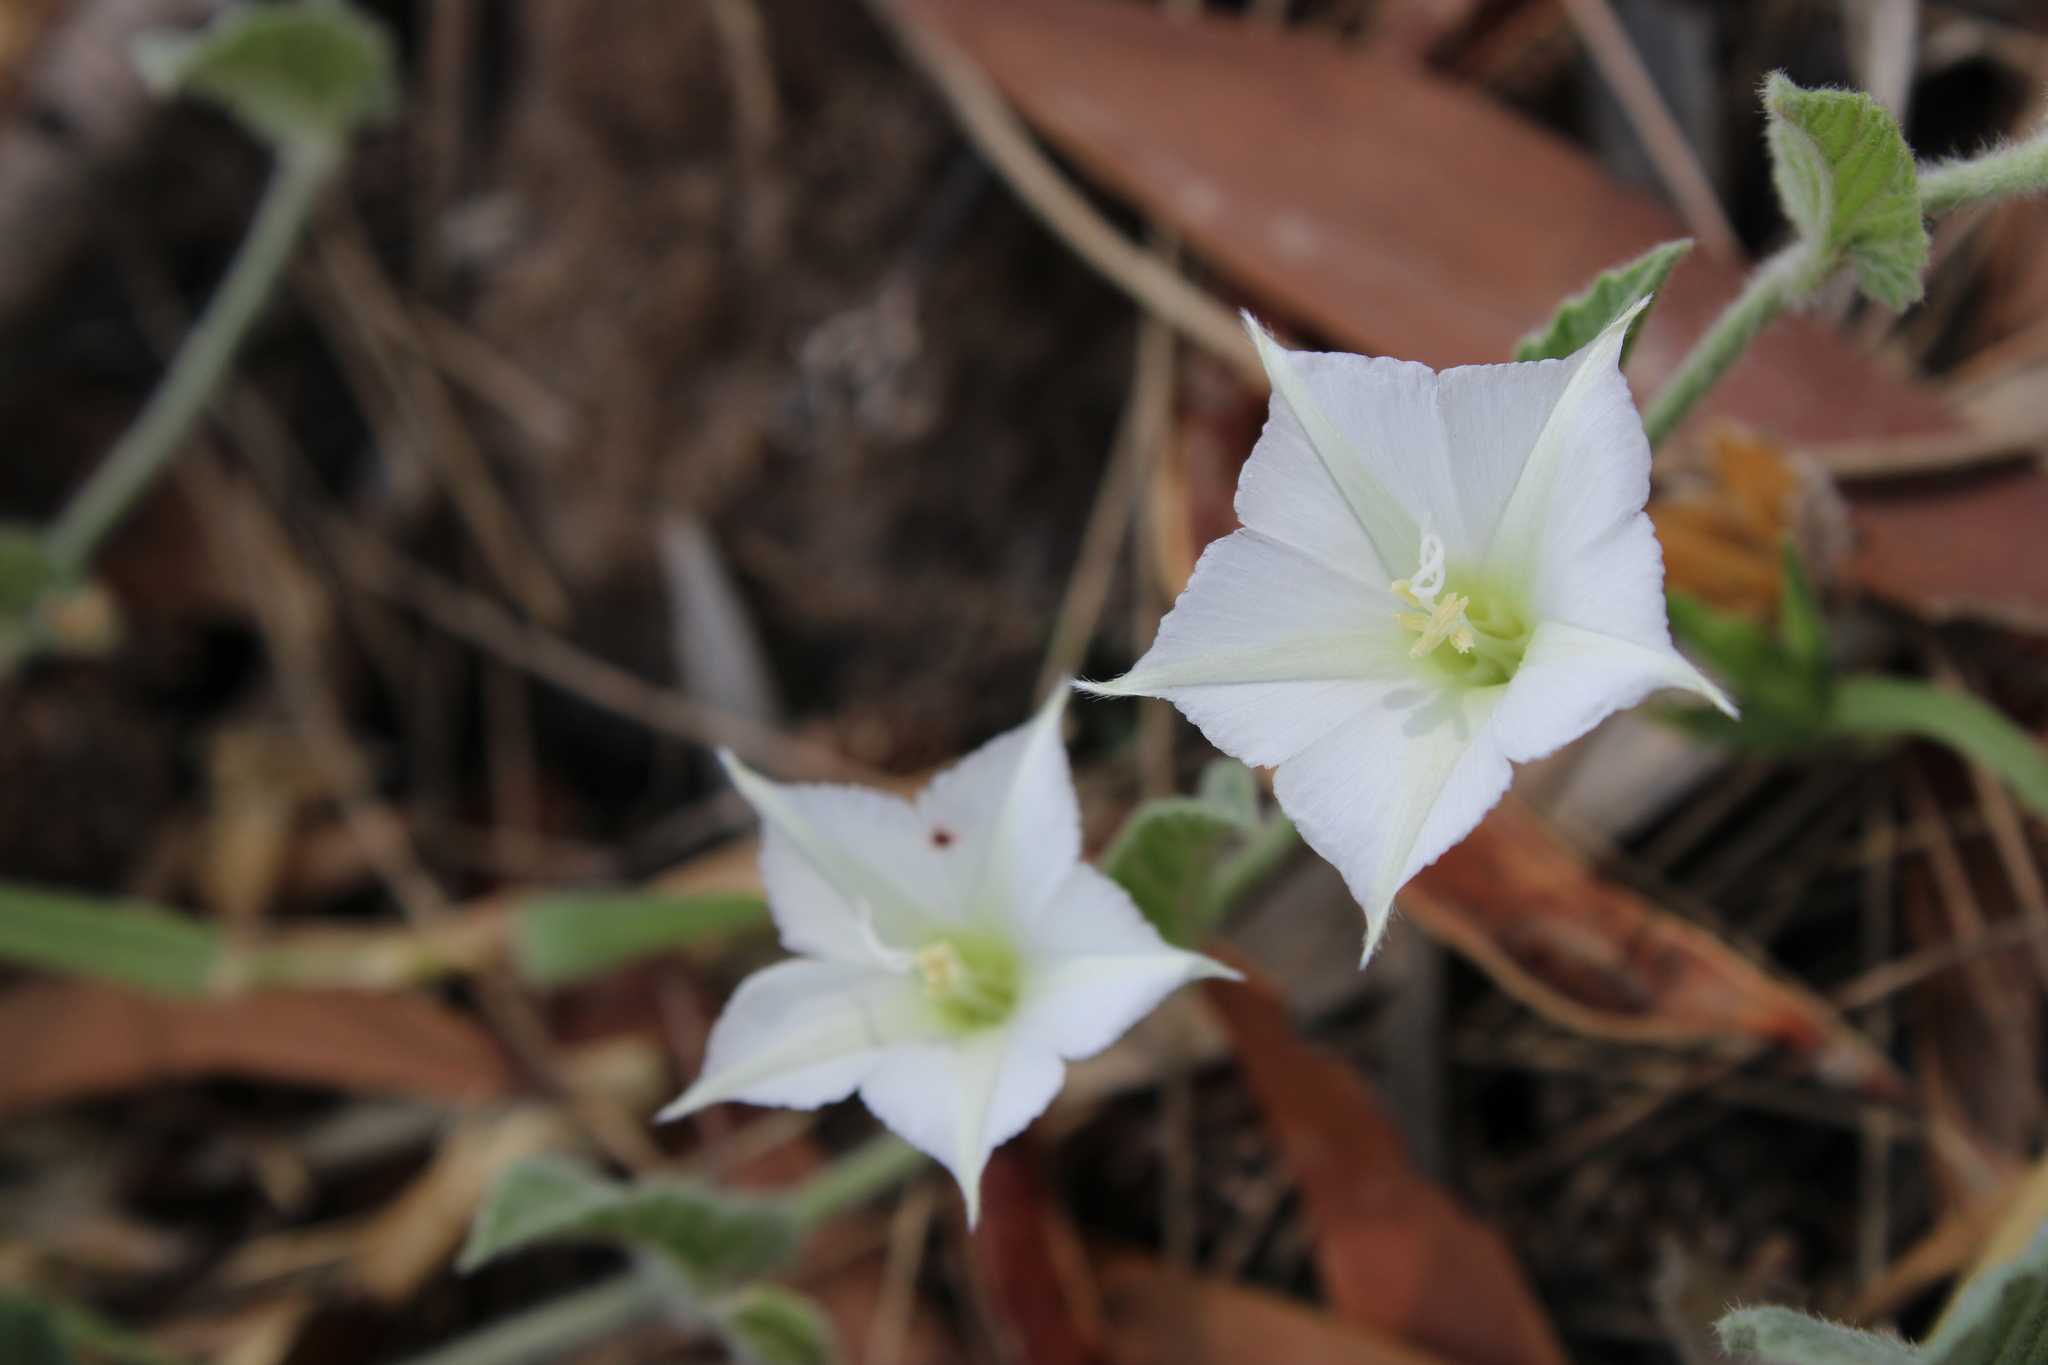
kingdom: Plantae
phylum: Tracheophyta
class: Magnoliopsida
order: Solanales
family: Convolvulaceae
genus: Convolvulus
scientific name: Convolvulus hermanniae
